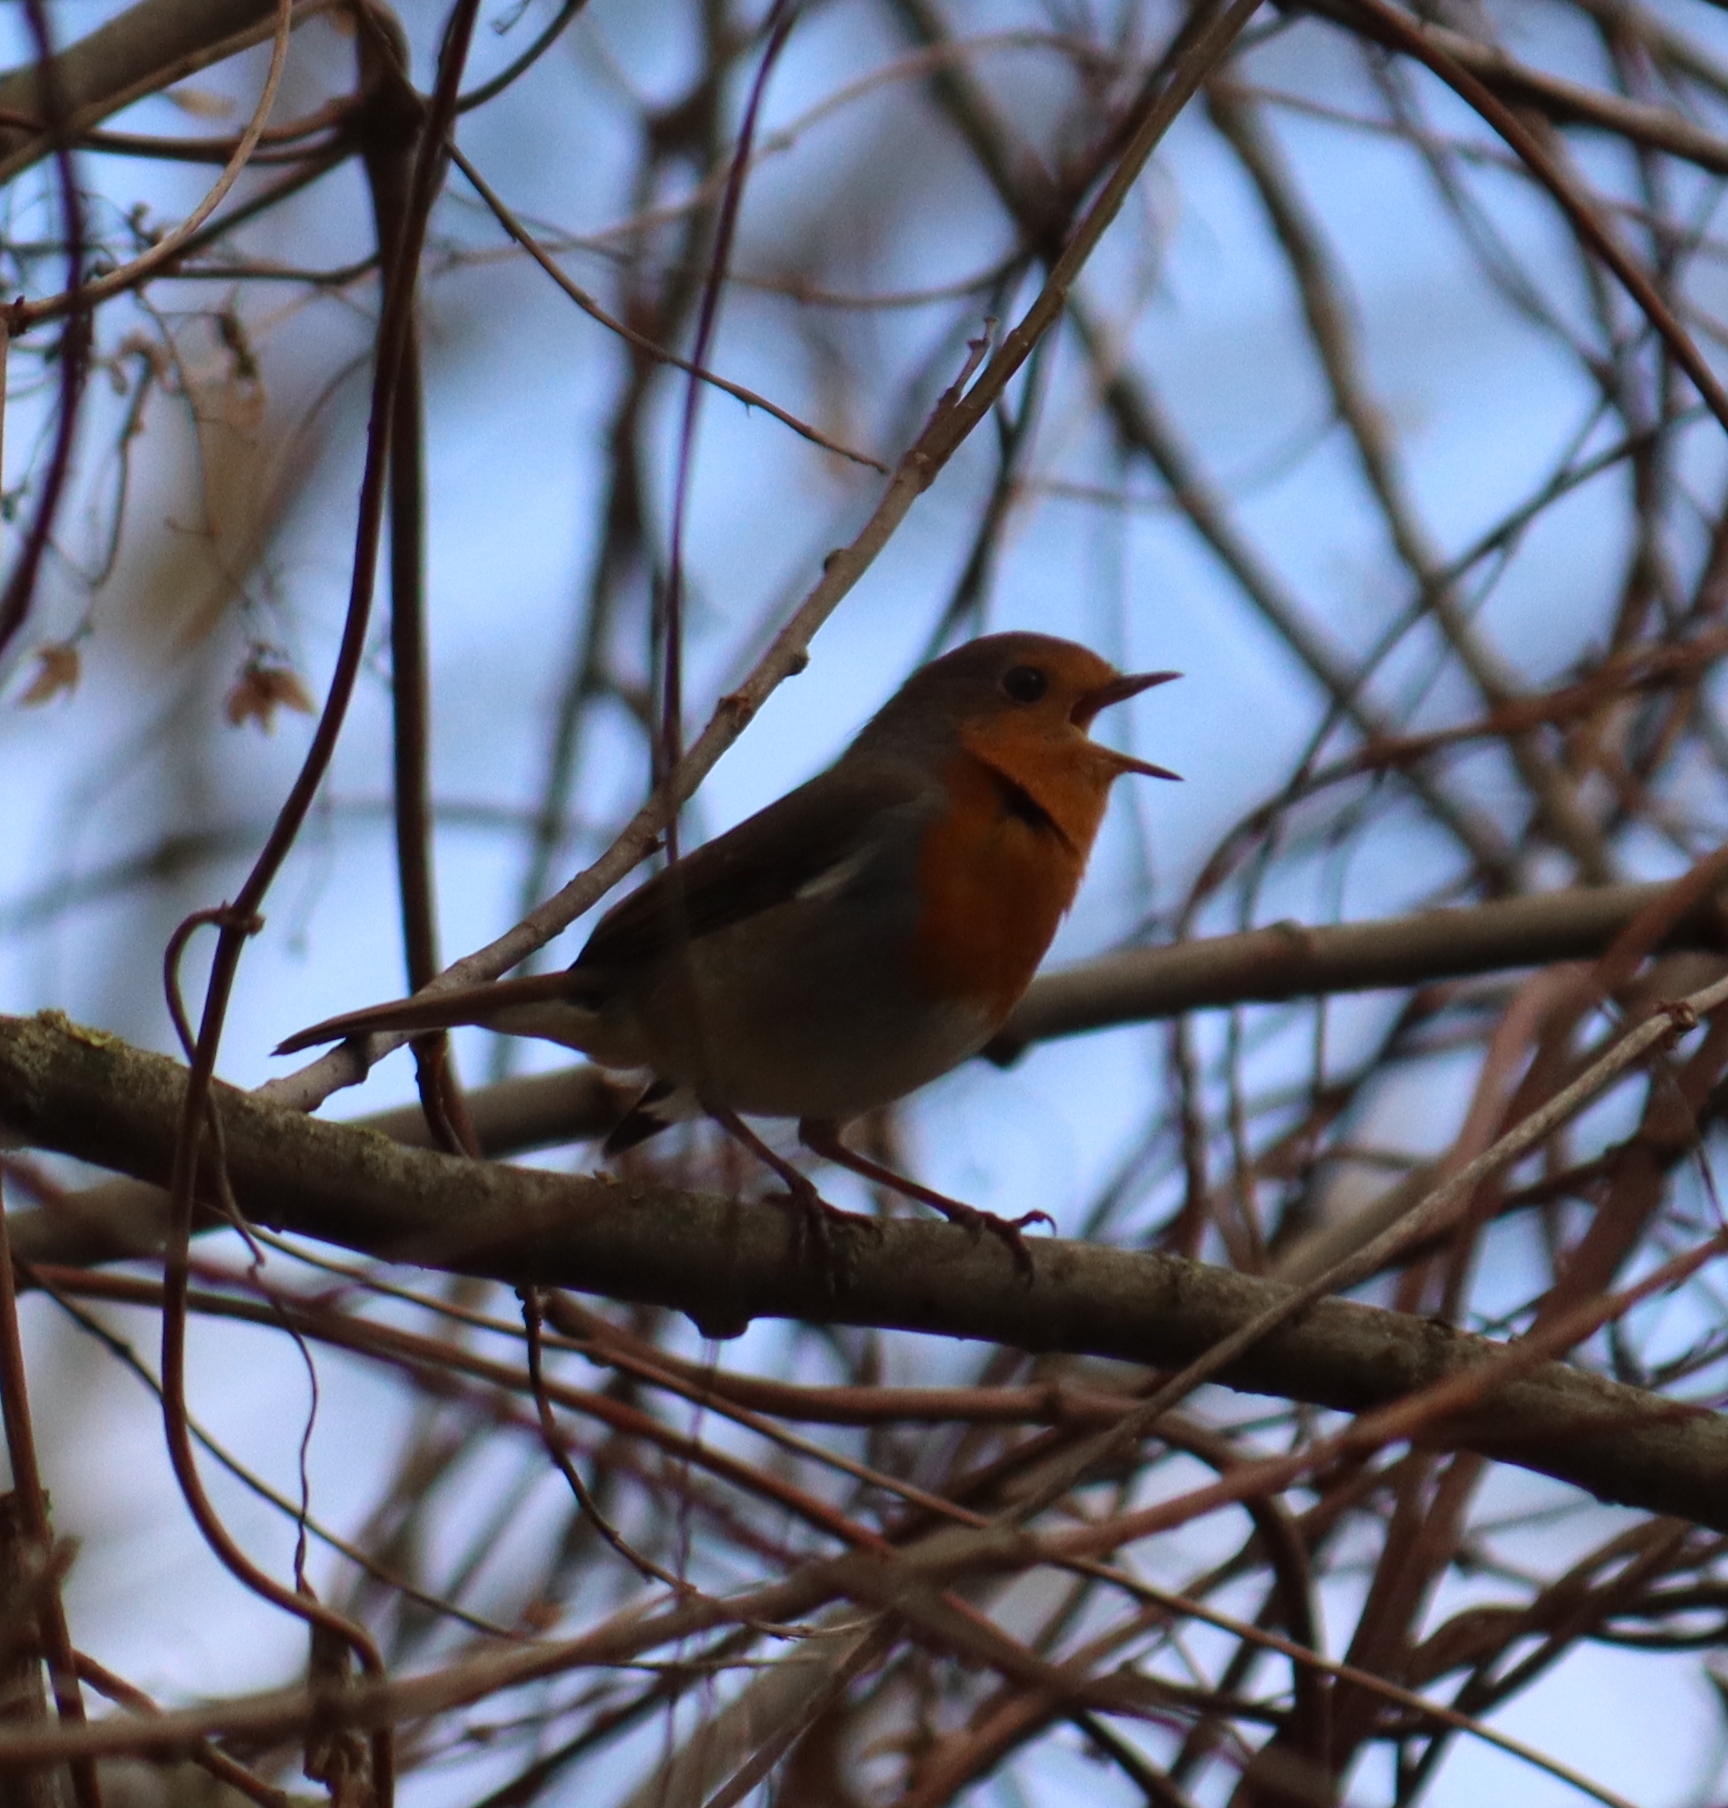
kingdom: Animalia
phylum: Chordata
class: Aves
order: Passeriformes
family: Muscicapidae
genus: Erithacus
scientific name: Erithacus rubecula
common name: European robin
